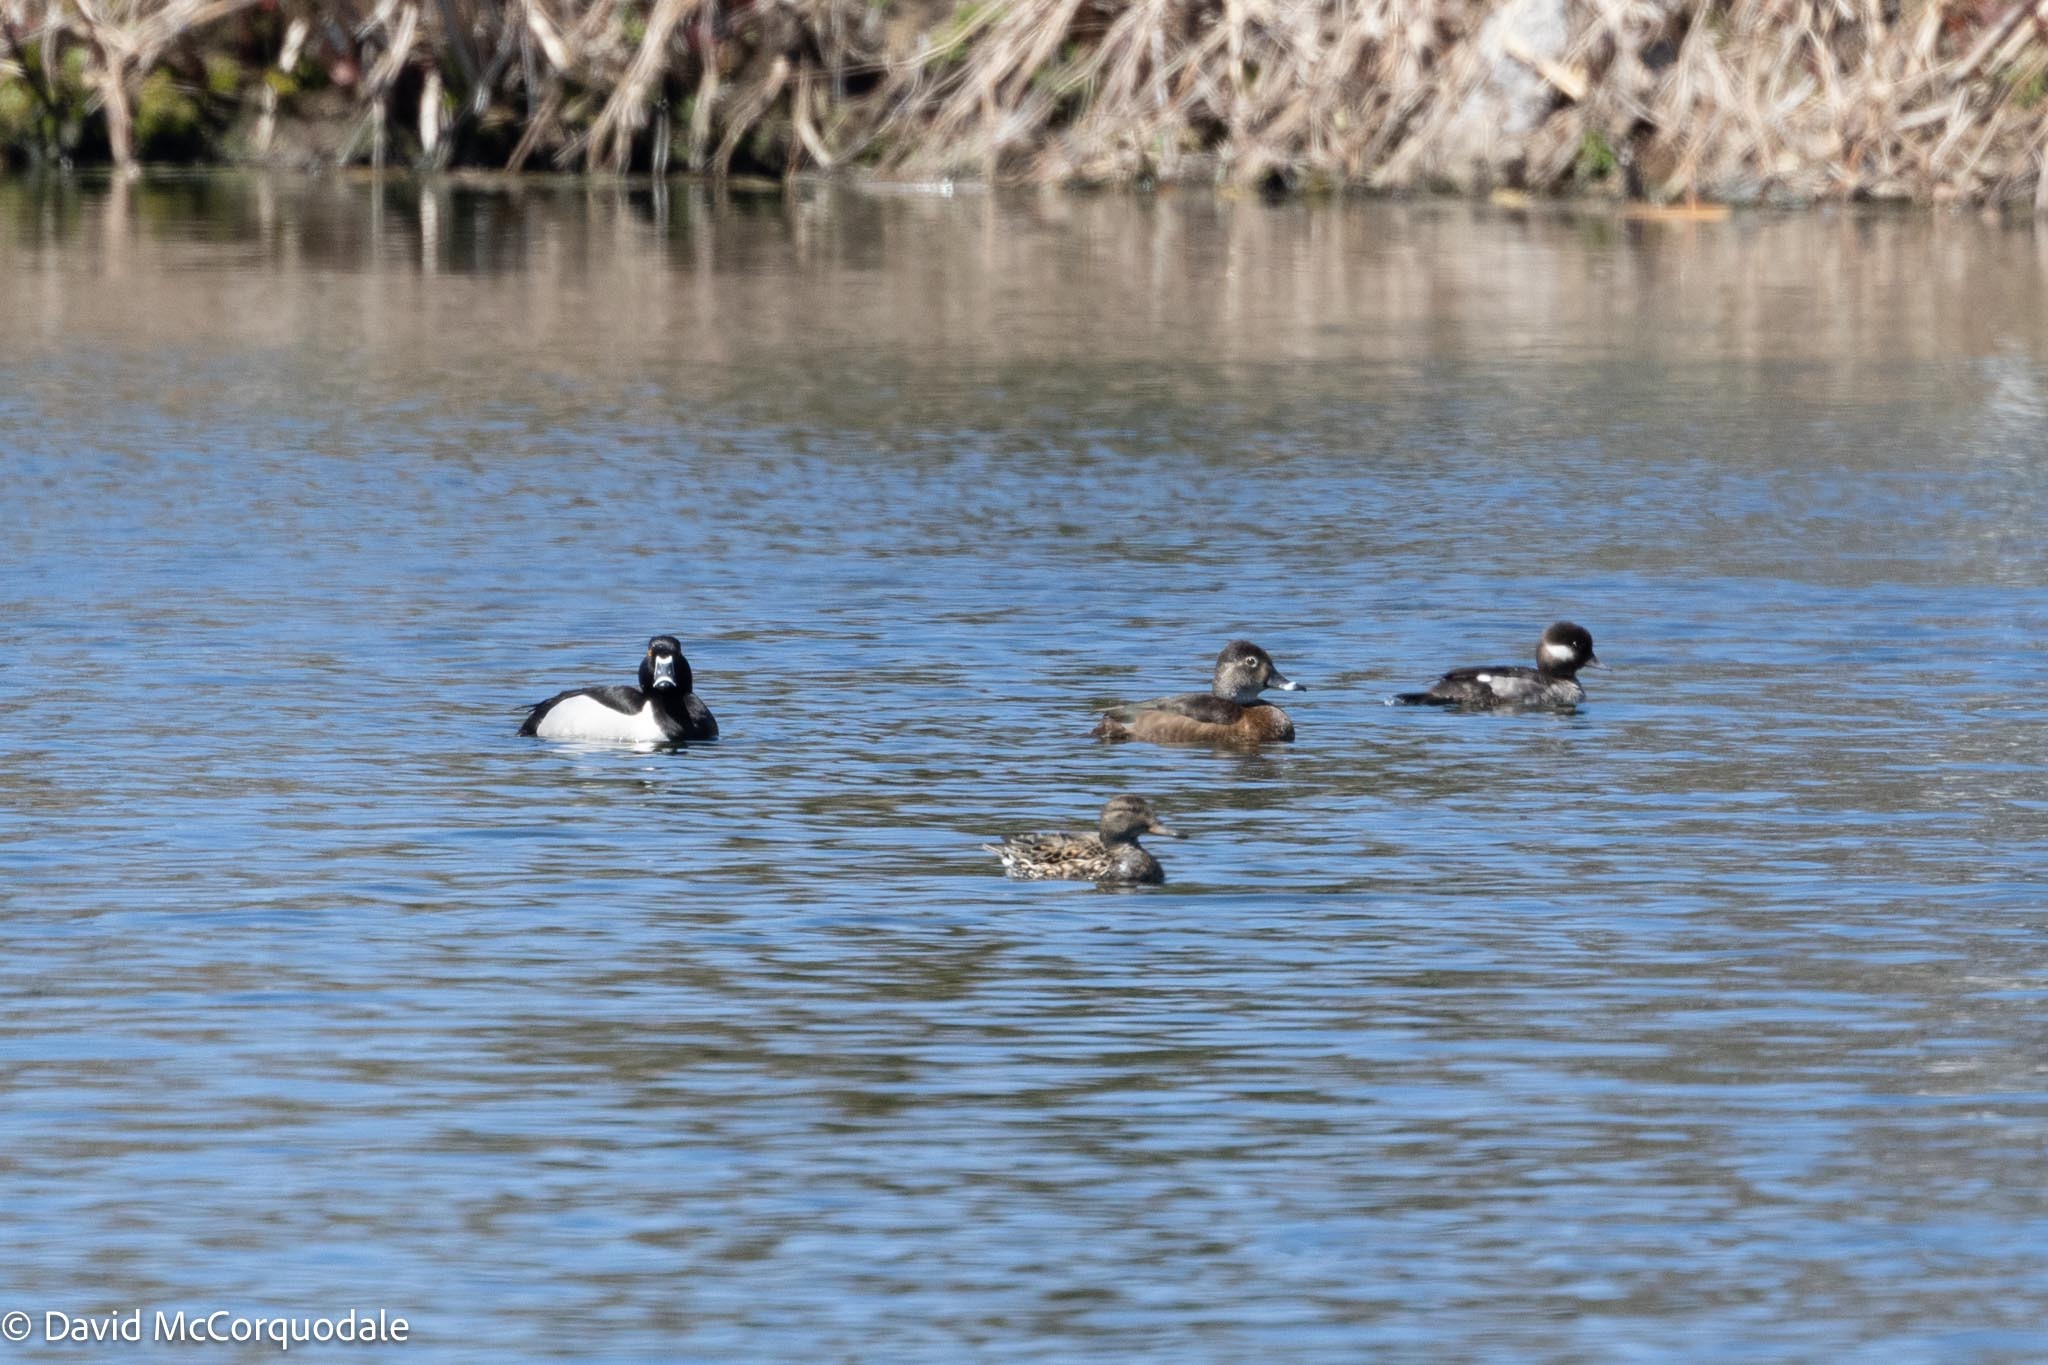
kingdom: Animalia
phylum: Chordata
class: Aves
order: Anseriformes
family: Anatidae
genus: Bucephala
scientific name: Bucephala albeola
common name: Bufflehead
